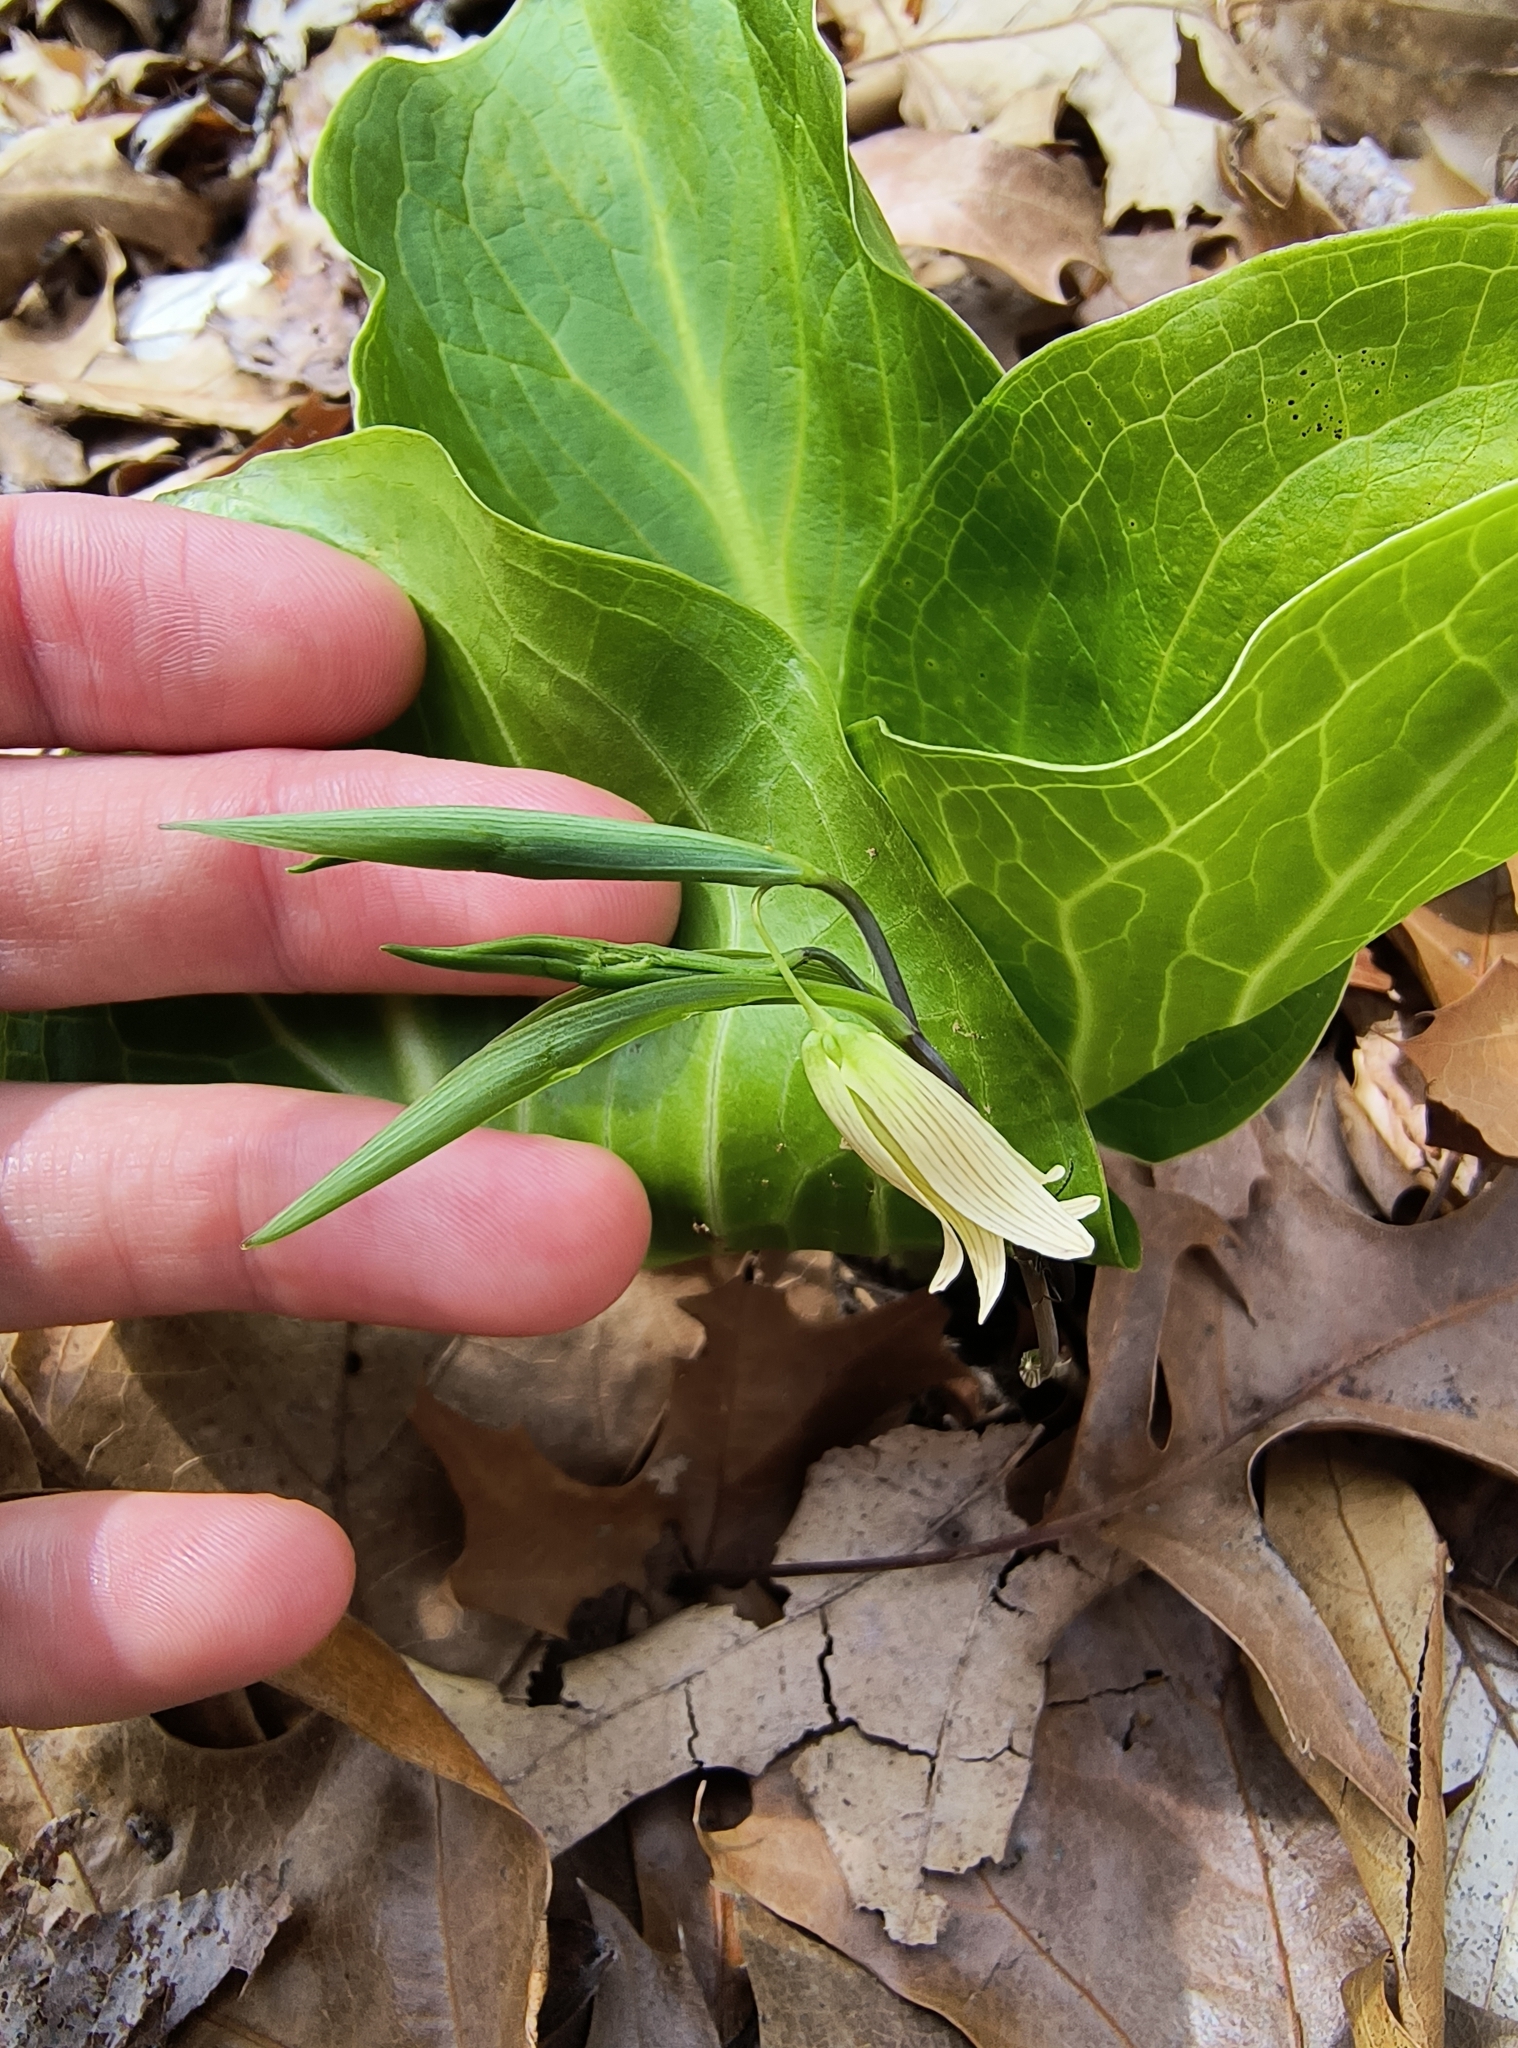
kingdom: Plantae
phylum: Tracheophyta
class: Liliopsida
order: Liliales
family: Colchicaceae
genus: Uvularia
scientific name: Uvularia sessilifolia
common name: Straw-lily
